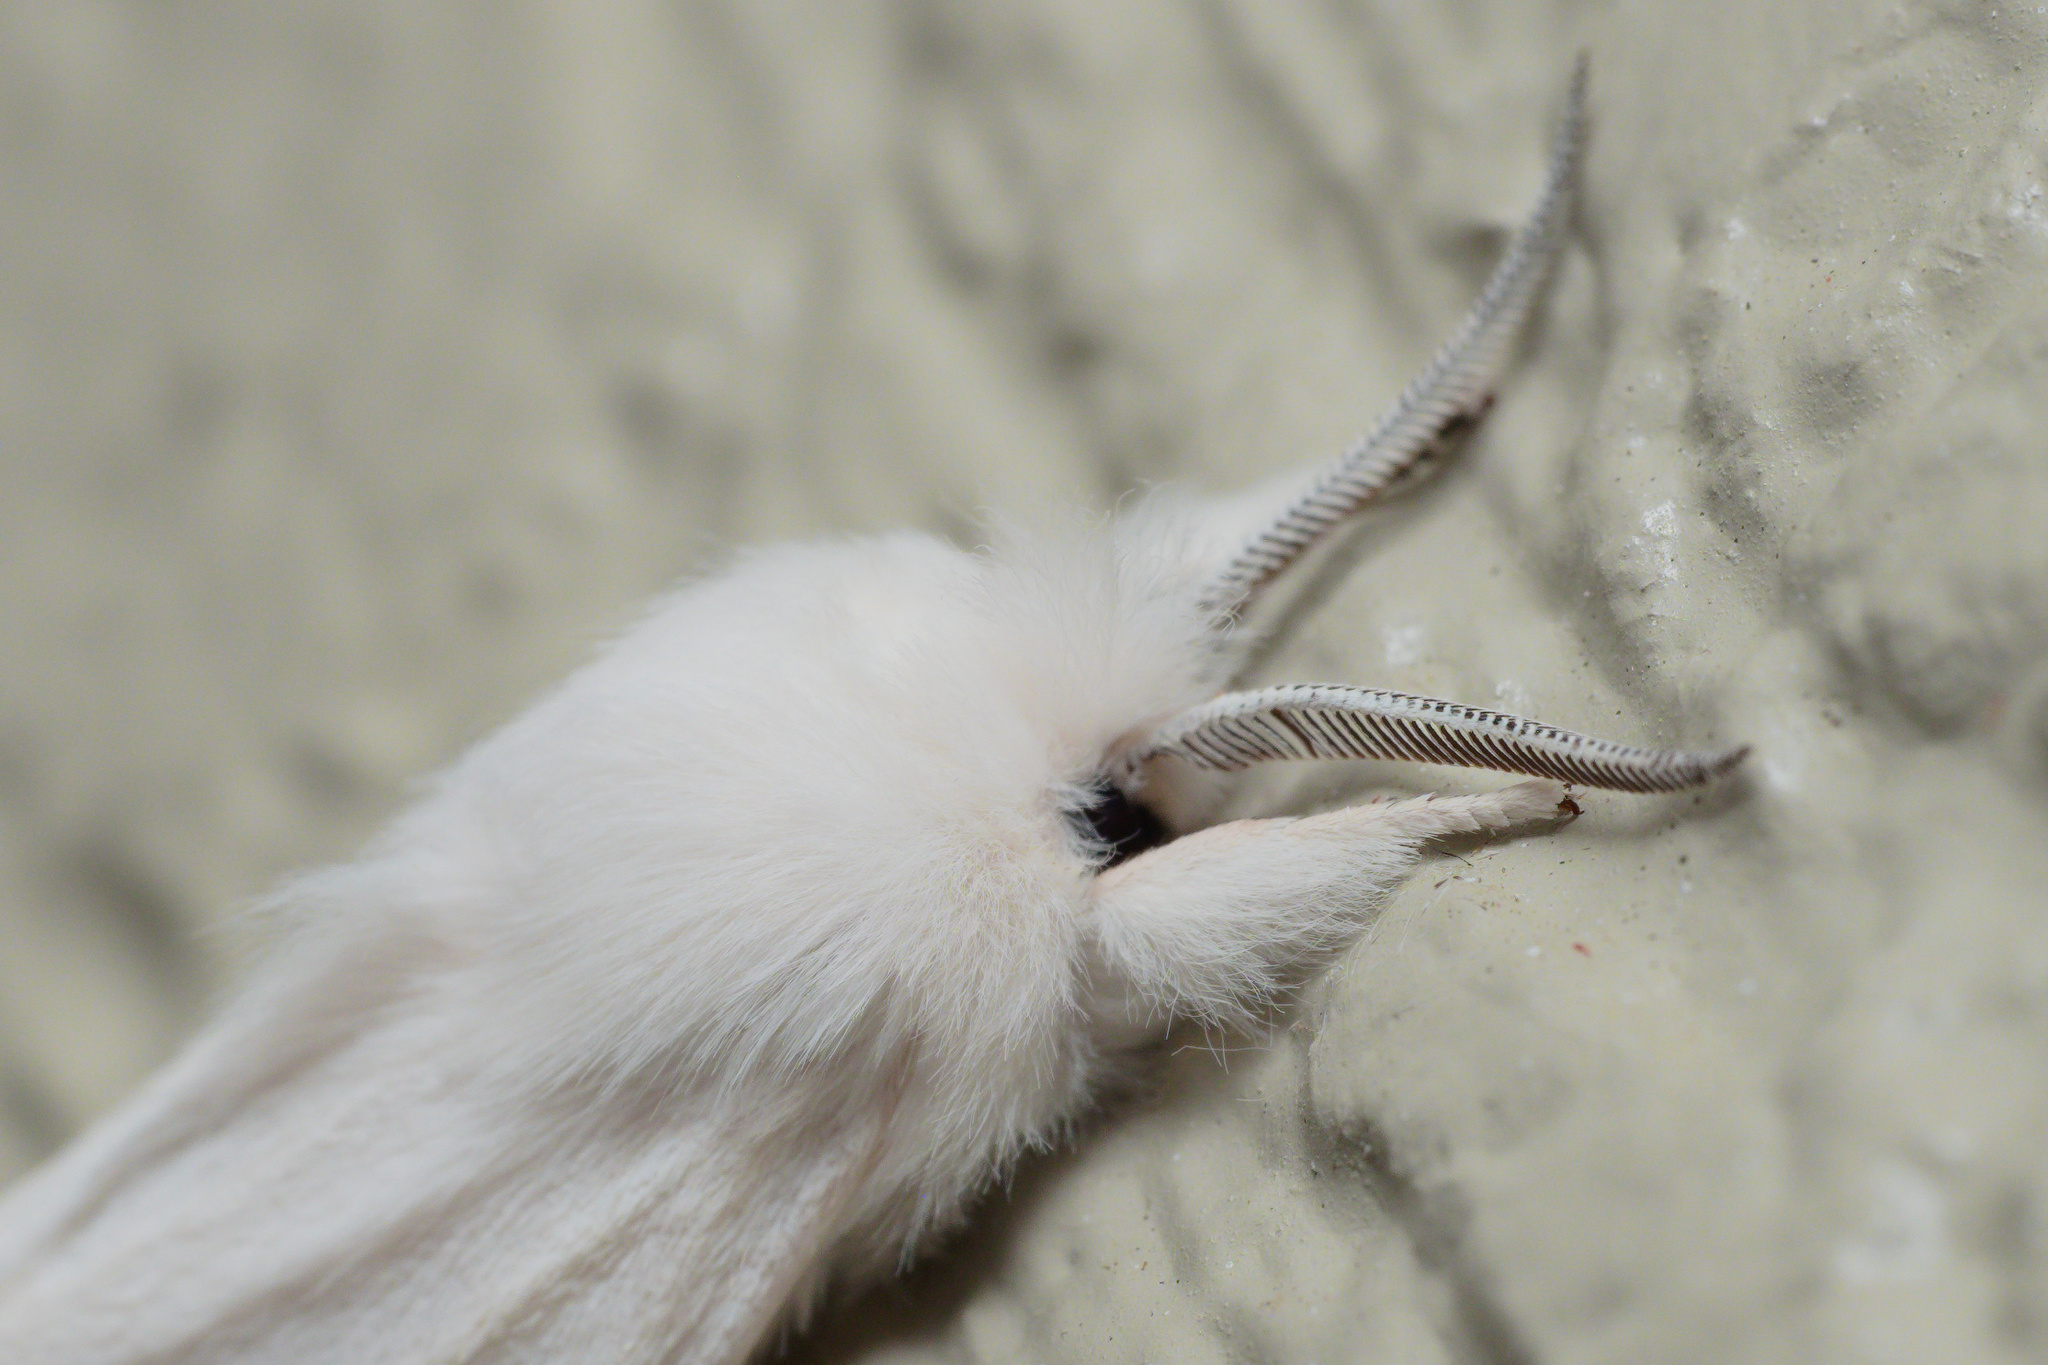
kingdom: Animalia
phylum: Arthropoda
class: Insecta
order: Lepidoptera
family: Erebidae
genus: Spilosoma
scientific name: Spilosoma virginica
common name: Virginia tiger moth
